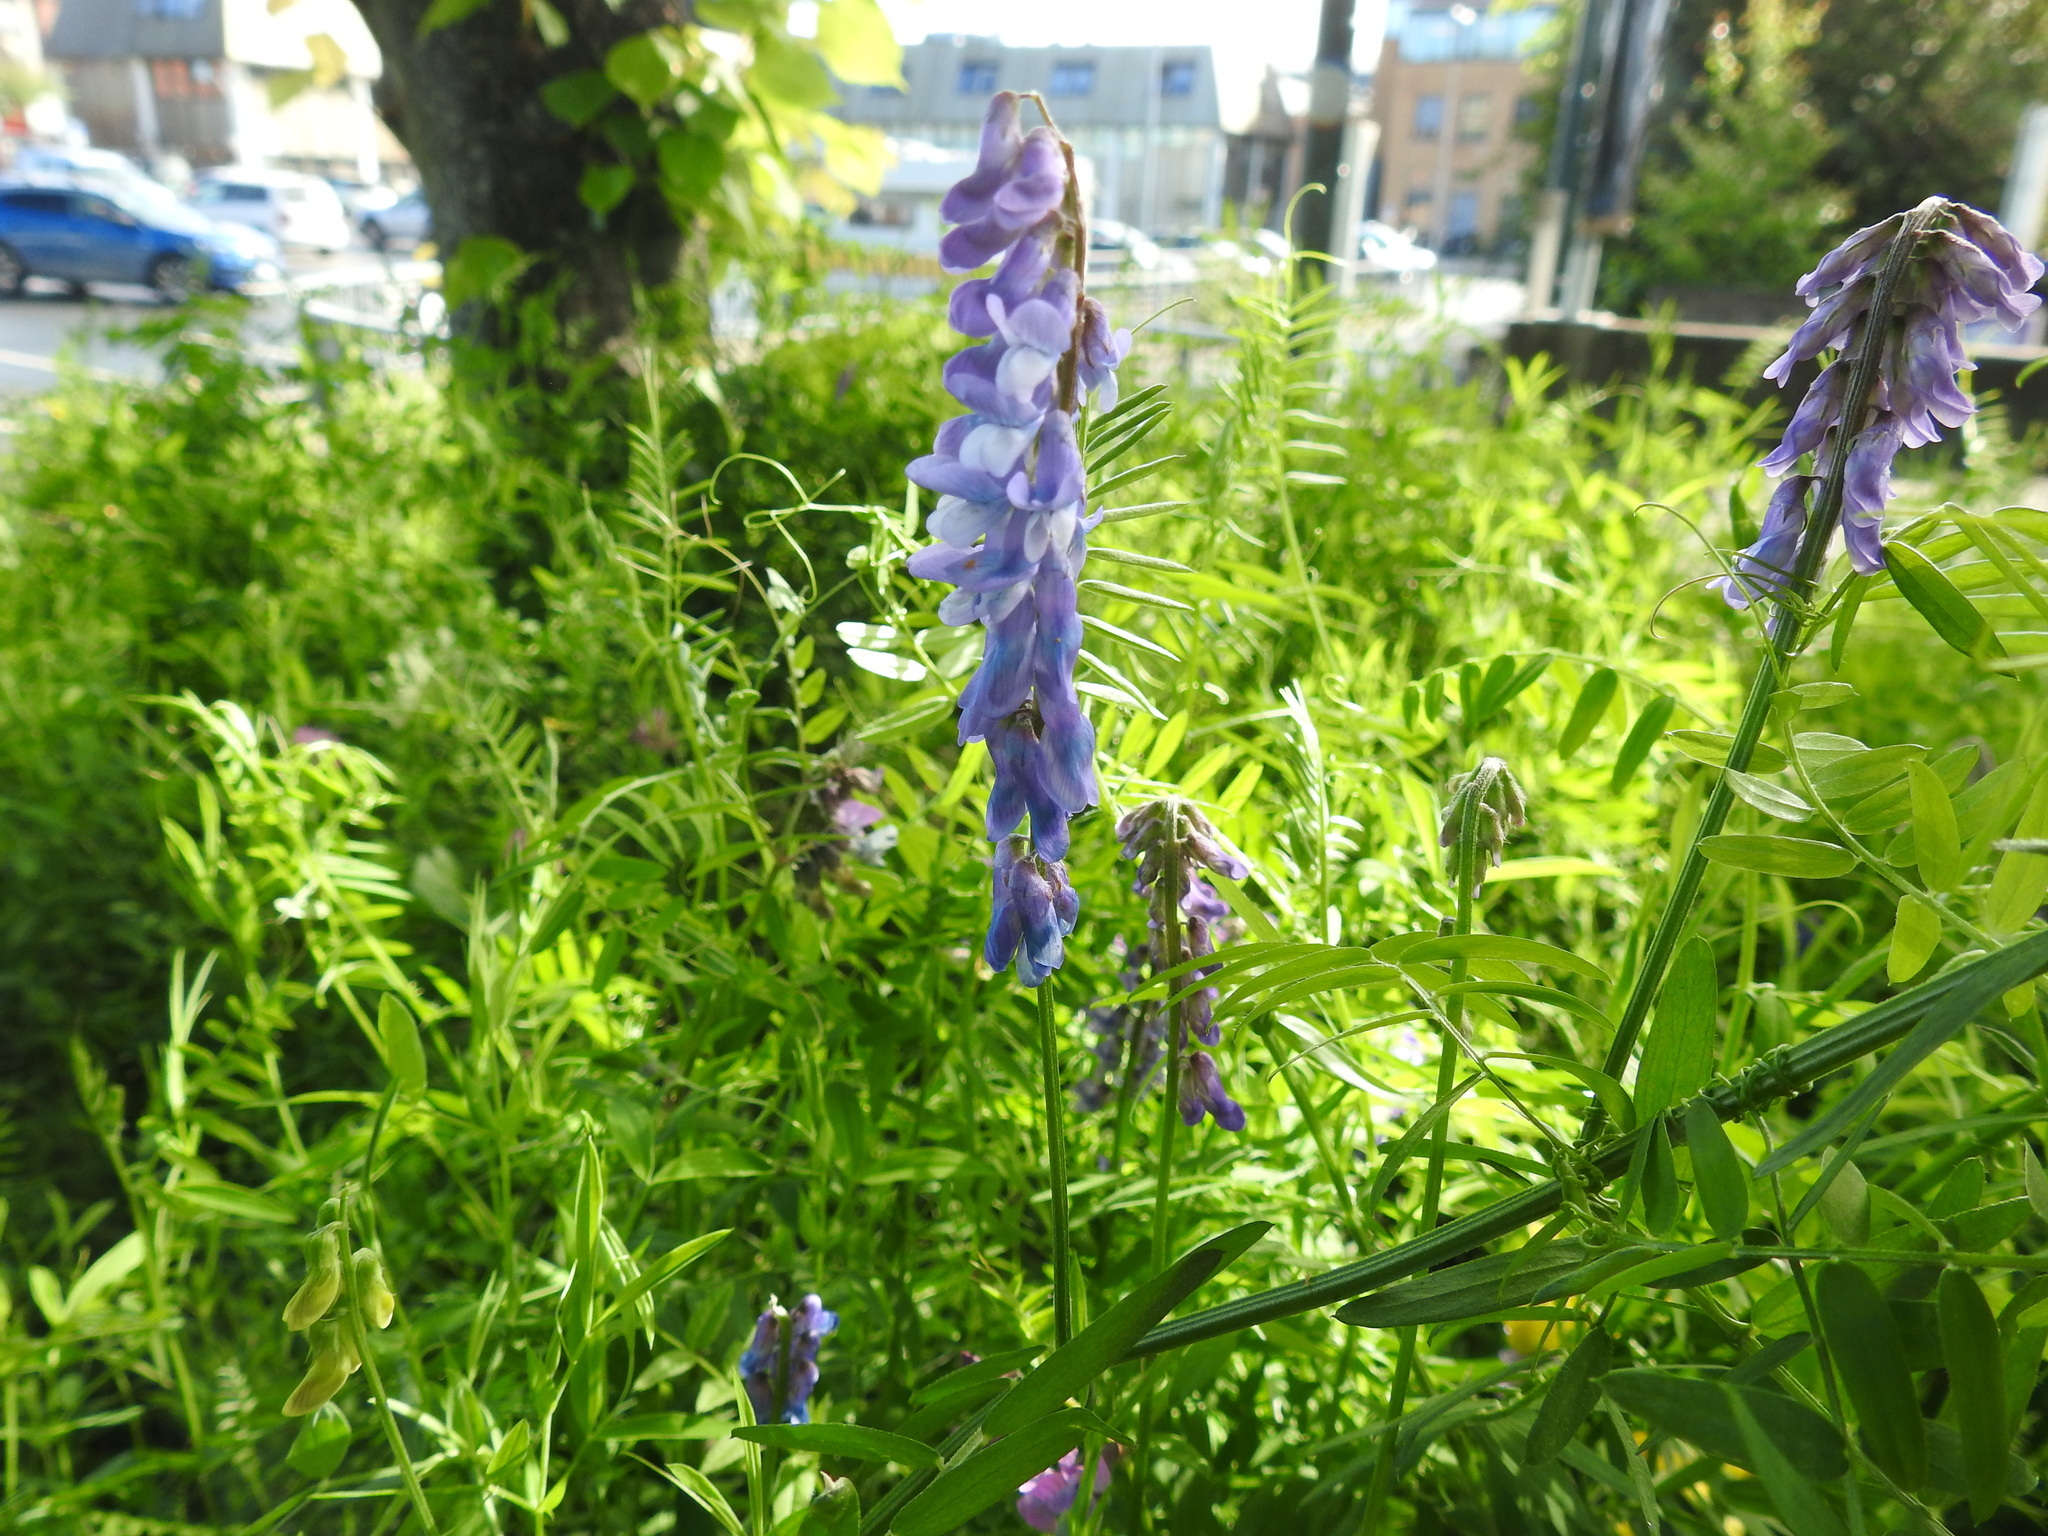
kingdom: Plantae
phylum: Tracheophyta
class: Magnoliopsida
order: Fabales
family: Fabaceae
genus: Vicia
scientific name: Vicia cracca
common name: Bird vetch
